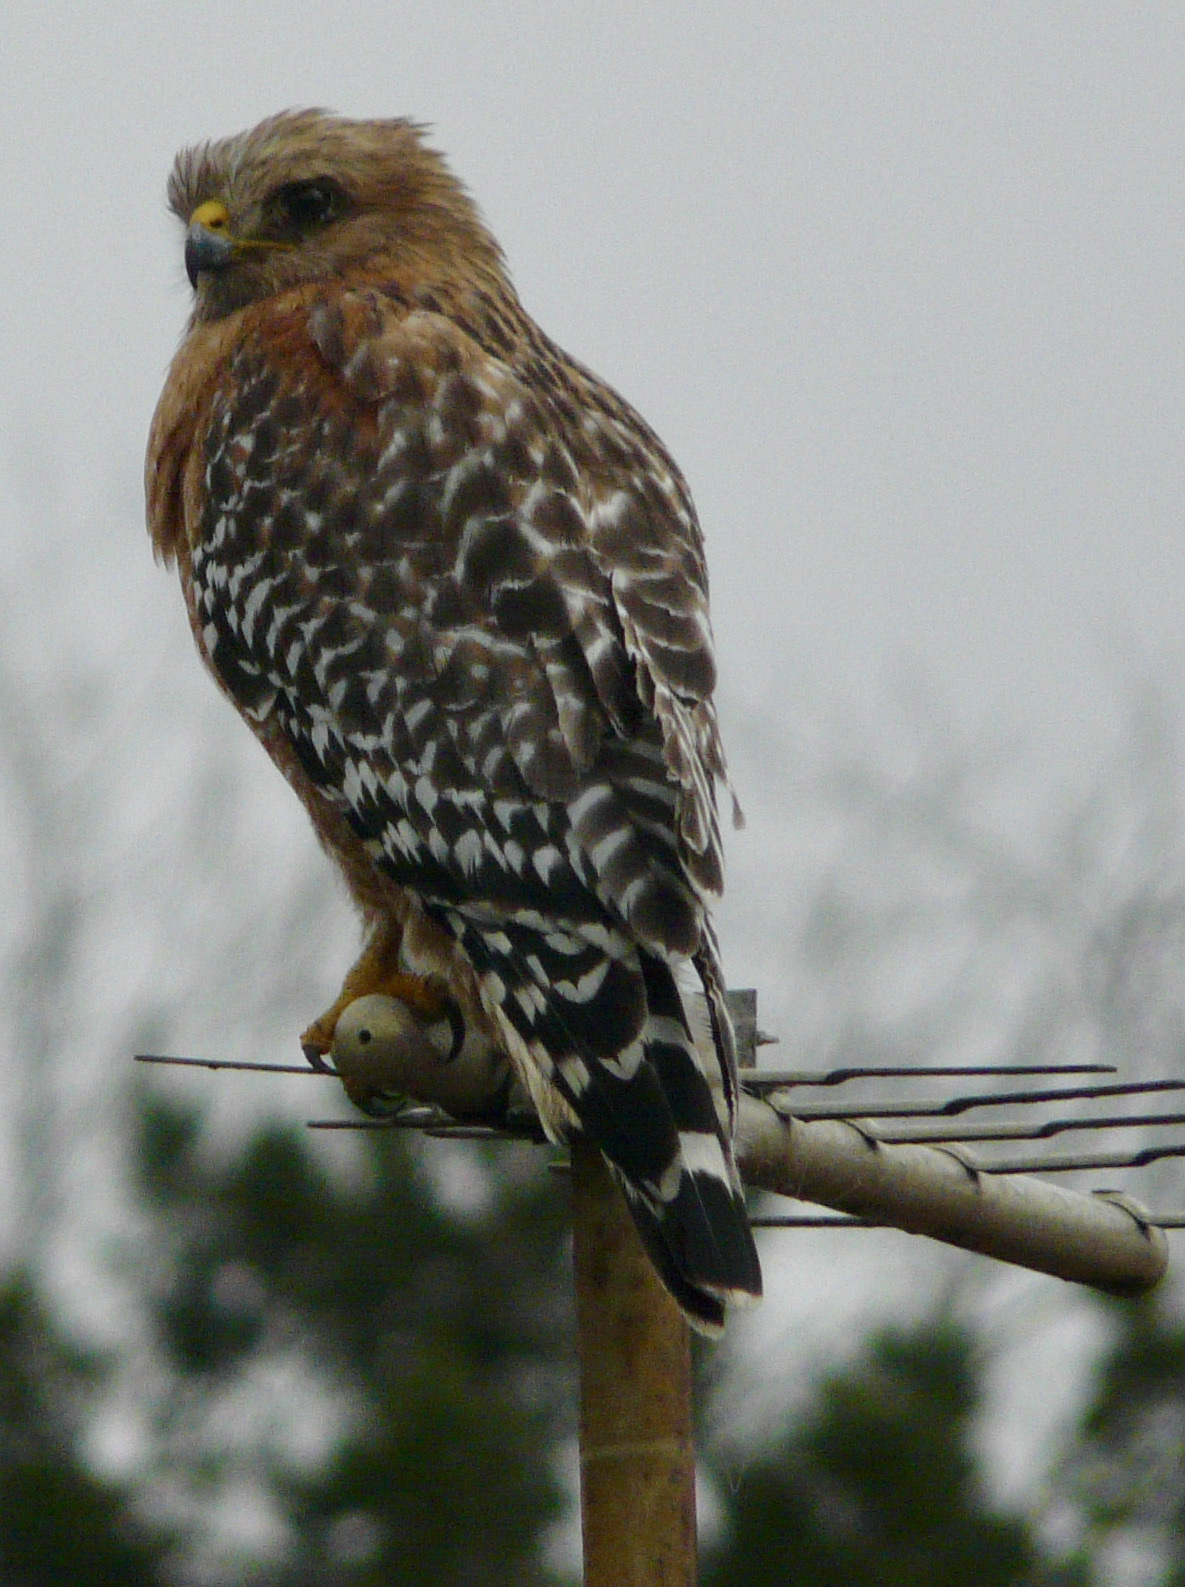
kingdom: Animalia
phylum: Chordata
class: Aves
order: Accipitriformes
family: Accipitridae
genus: Buteo
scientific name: Buteo lineatus
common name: Red-shouldered hawk
